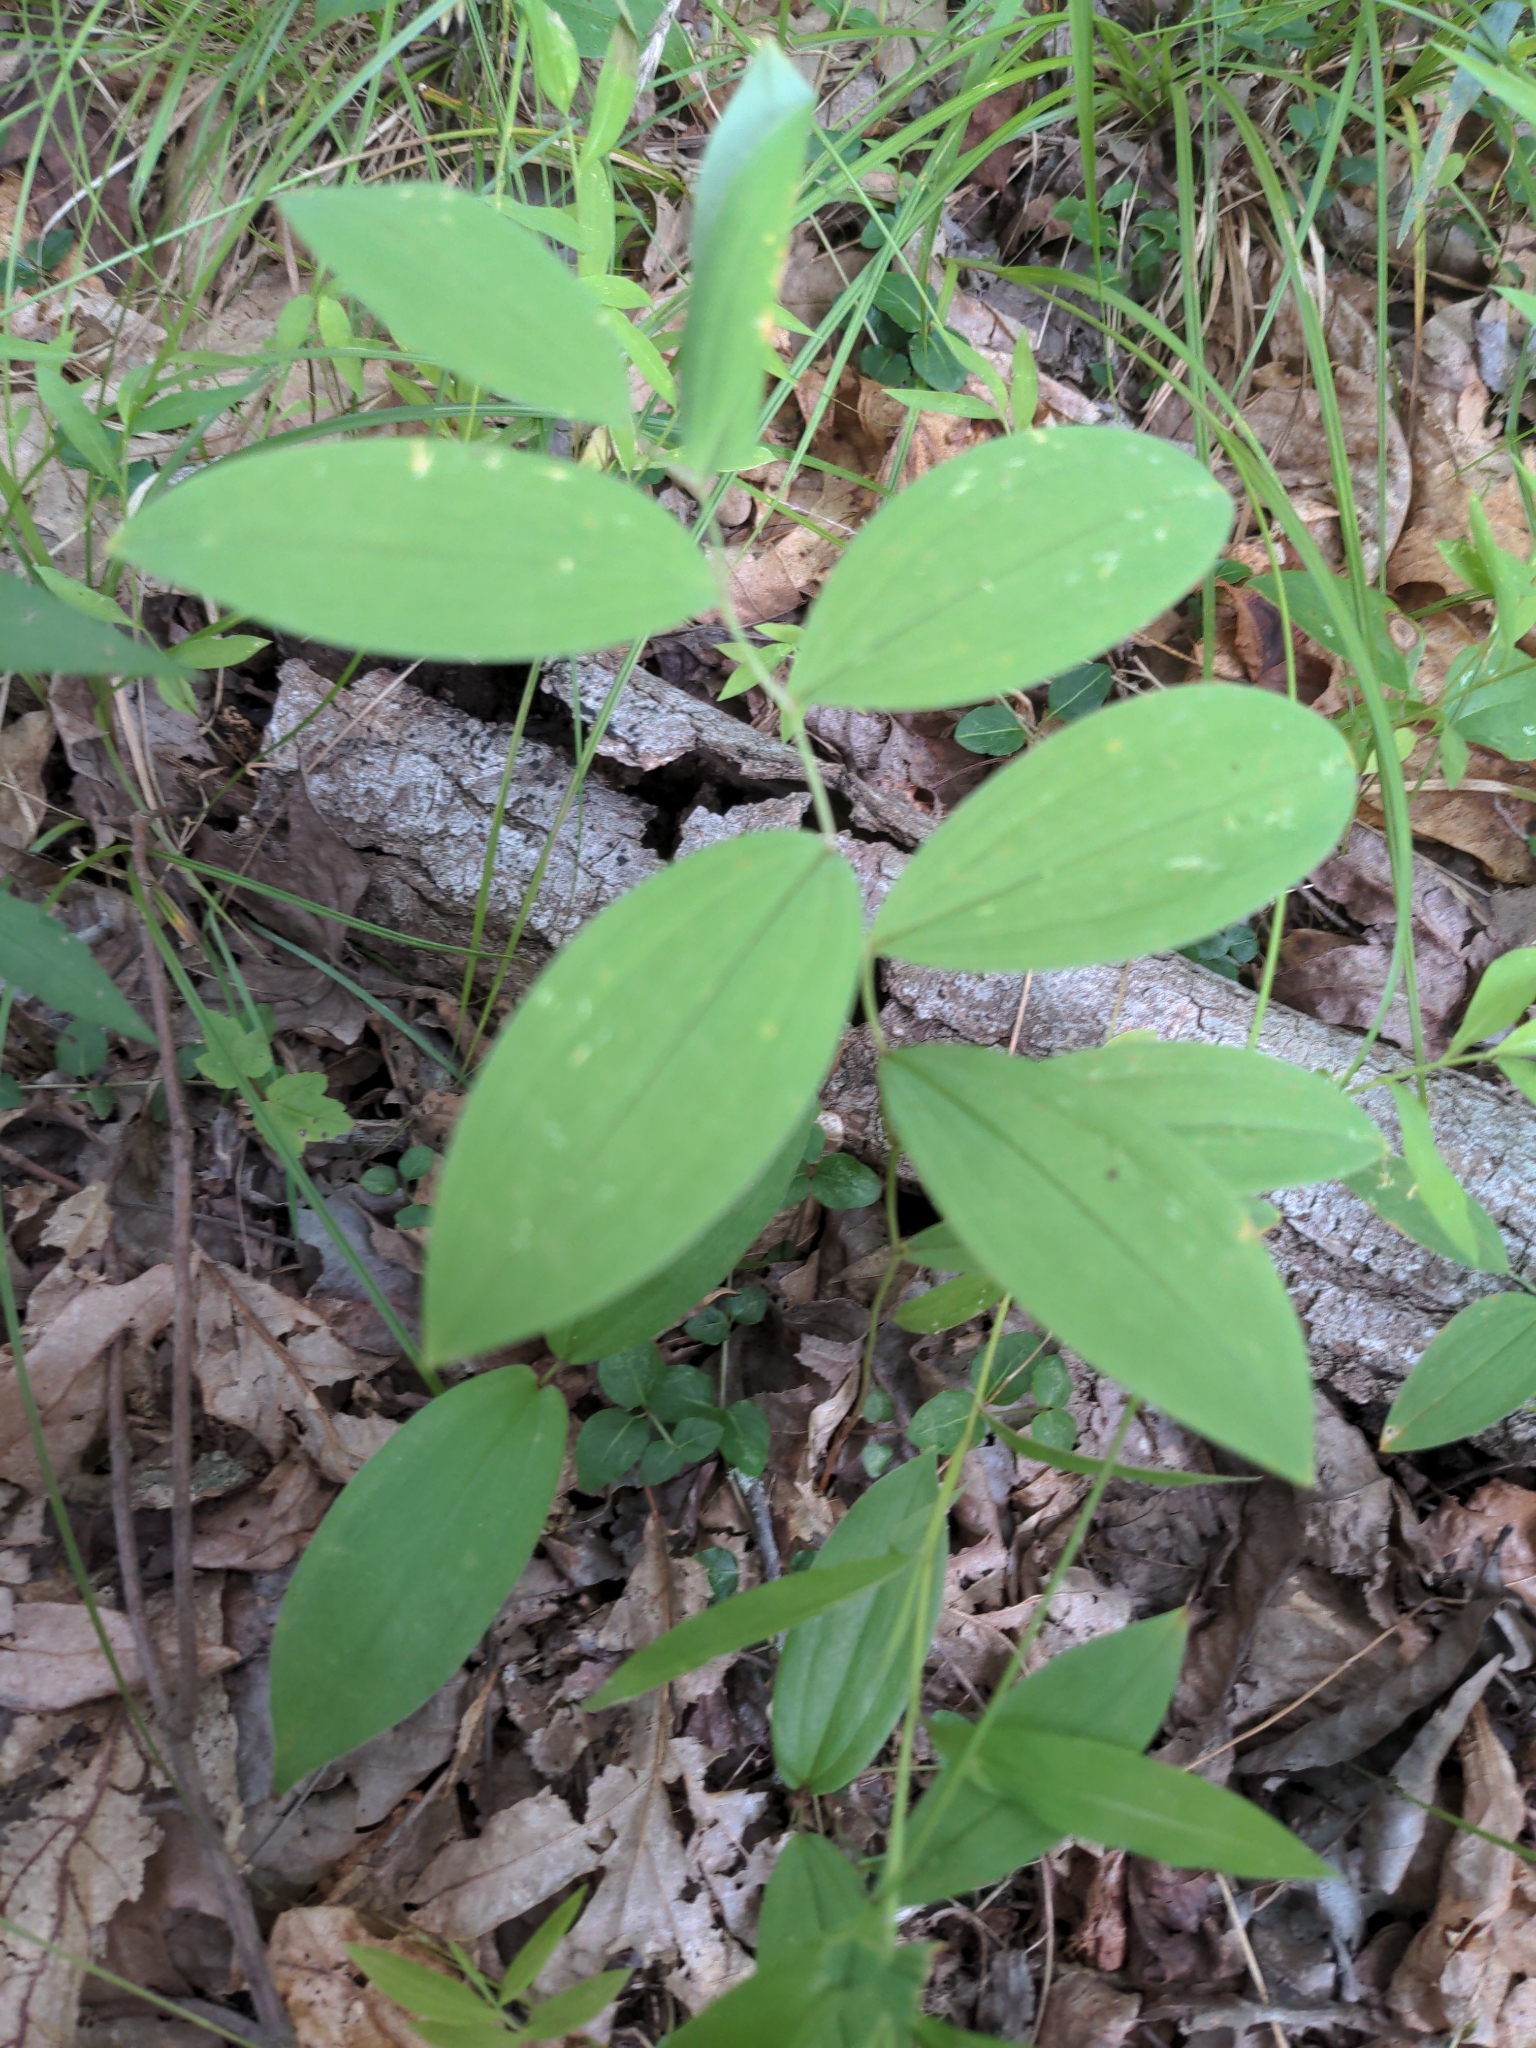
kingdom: Plantae
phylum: Tracheophyta
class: Liliopsida
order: Liliales
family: Colchicaceae
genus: Uvularia
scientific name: Uvularia sessilifolia
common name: Straw-lily
